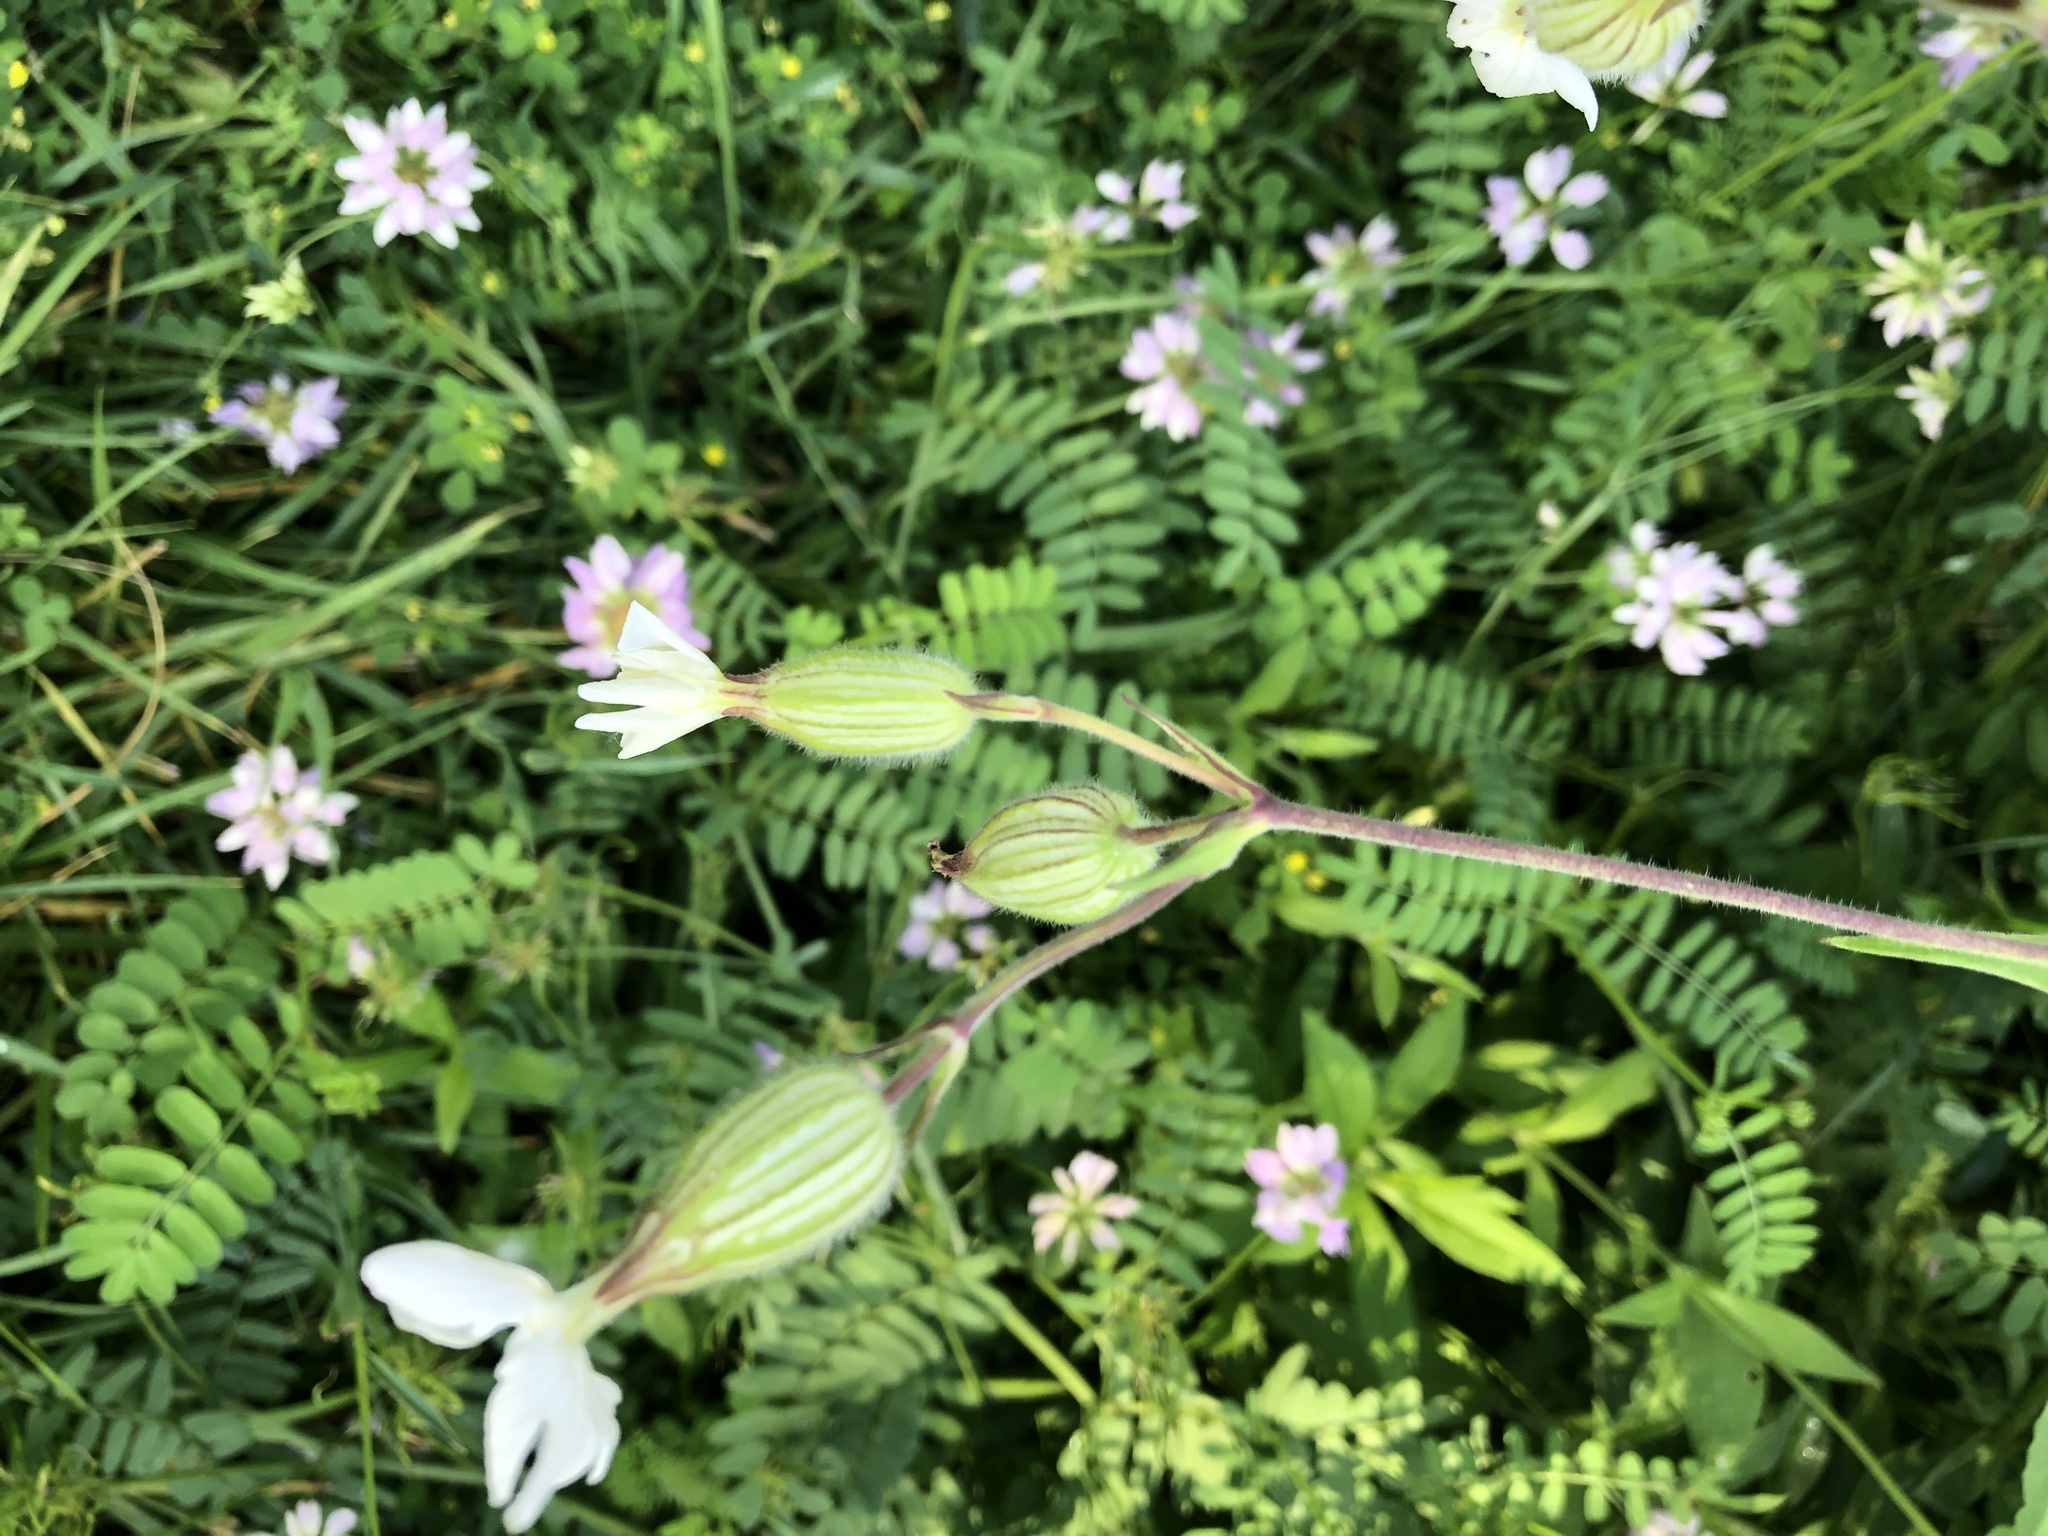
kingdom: Plantae
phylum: Tracheophyta
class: Magnoliopsida
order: Caryophyllales
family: Caryophyllaceae
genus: Silene
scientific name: Silene latifolia
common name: White campion
